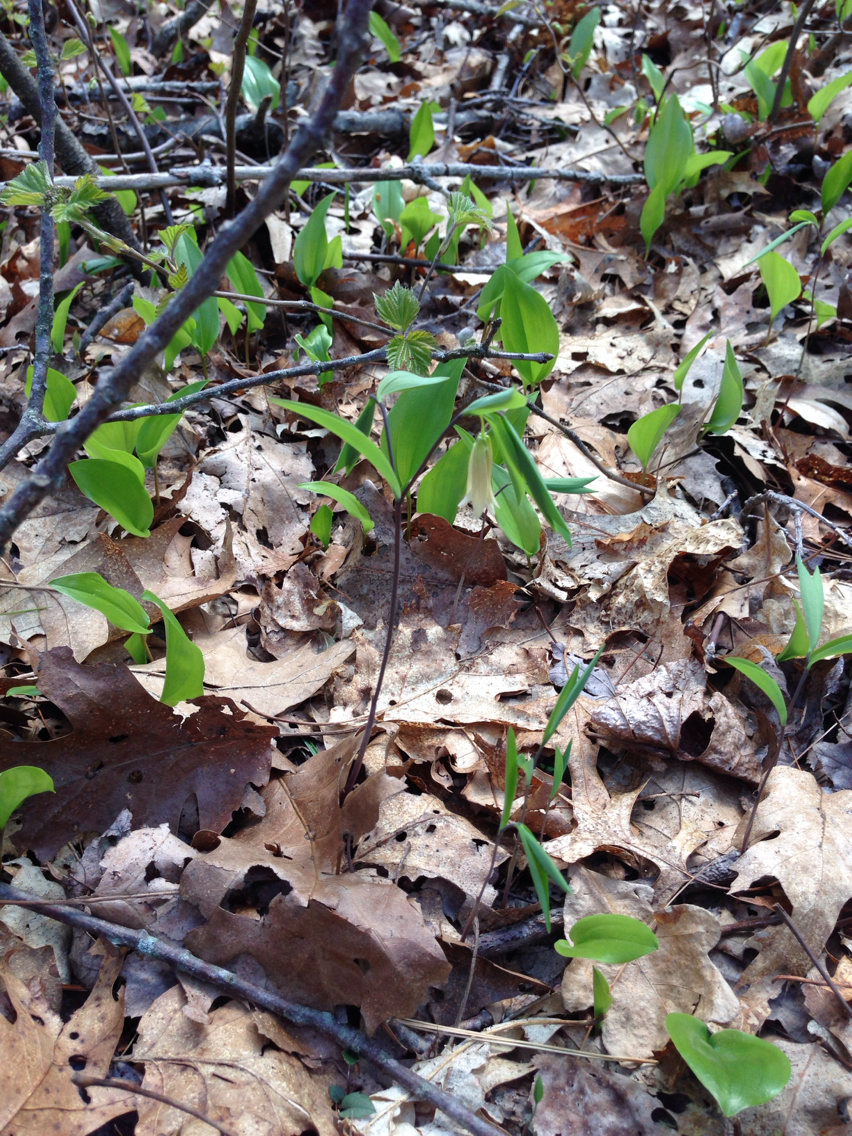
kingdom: Plantae
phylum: Tracheophyta
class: Liliopsida
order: Liliales
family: Colchicaceae
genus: Uvularia
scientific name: Uvularia sessilifolia
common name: Straw-lily
